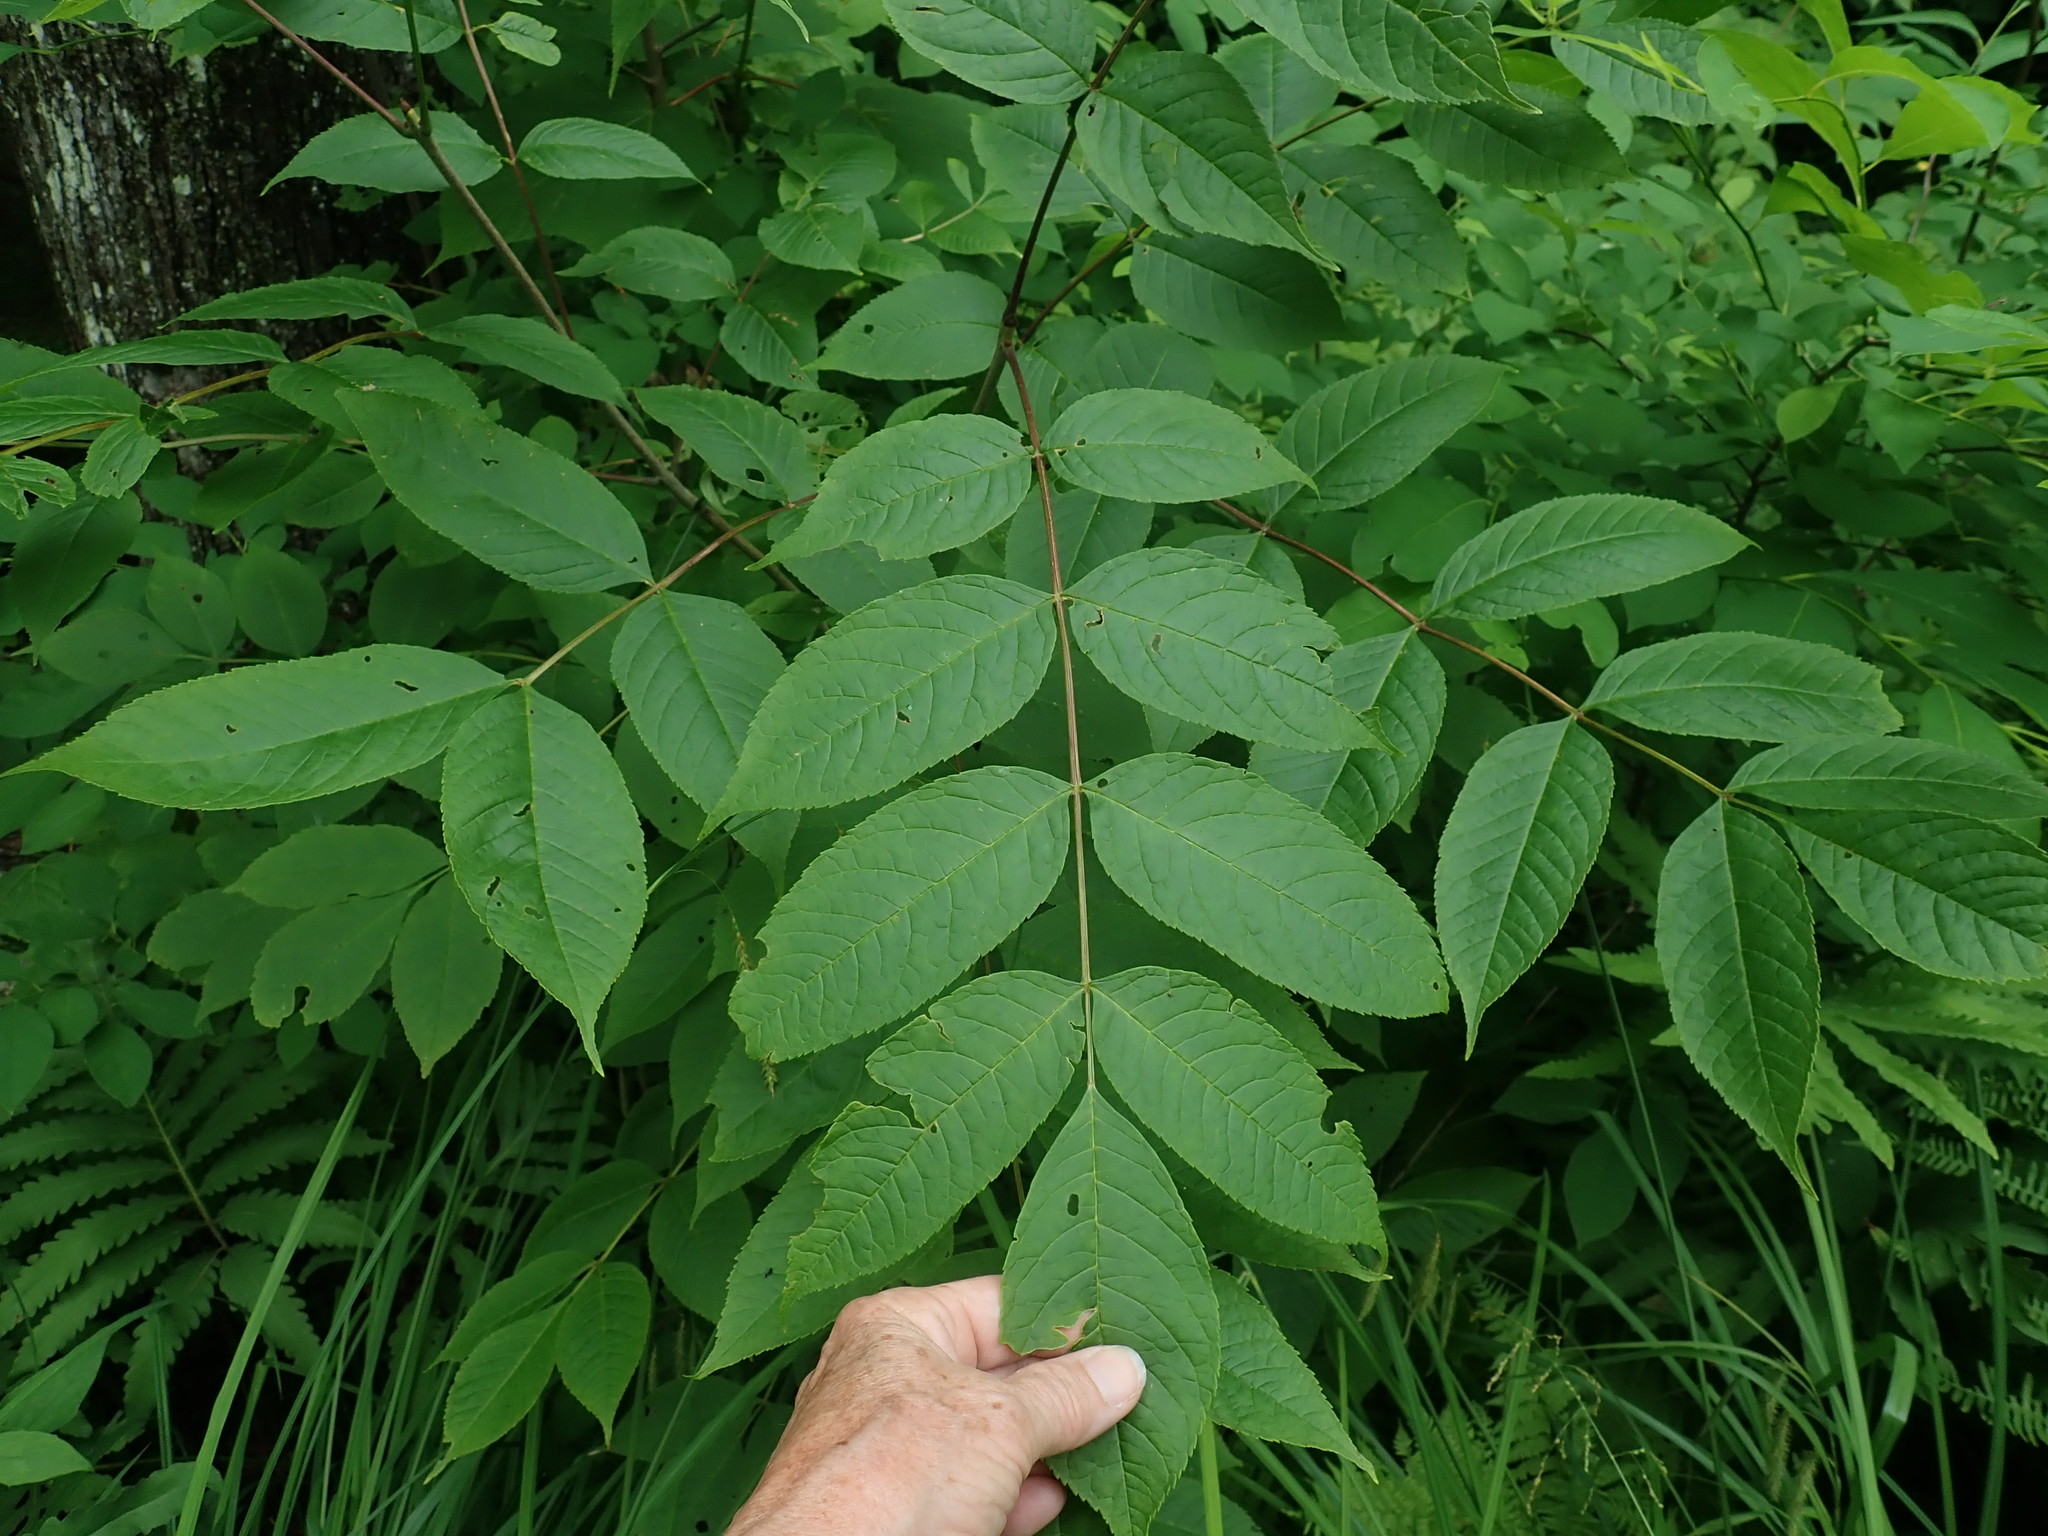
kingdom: Plantae
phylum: Tracheophyta
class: Magnoliopsida
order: Lamiales
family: Oleaceae
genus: Fraxinus
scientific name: Fraxinus nigra
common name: Black ash
